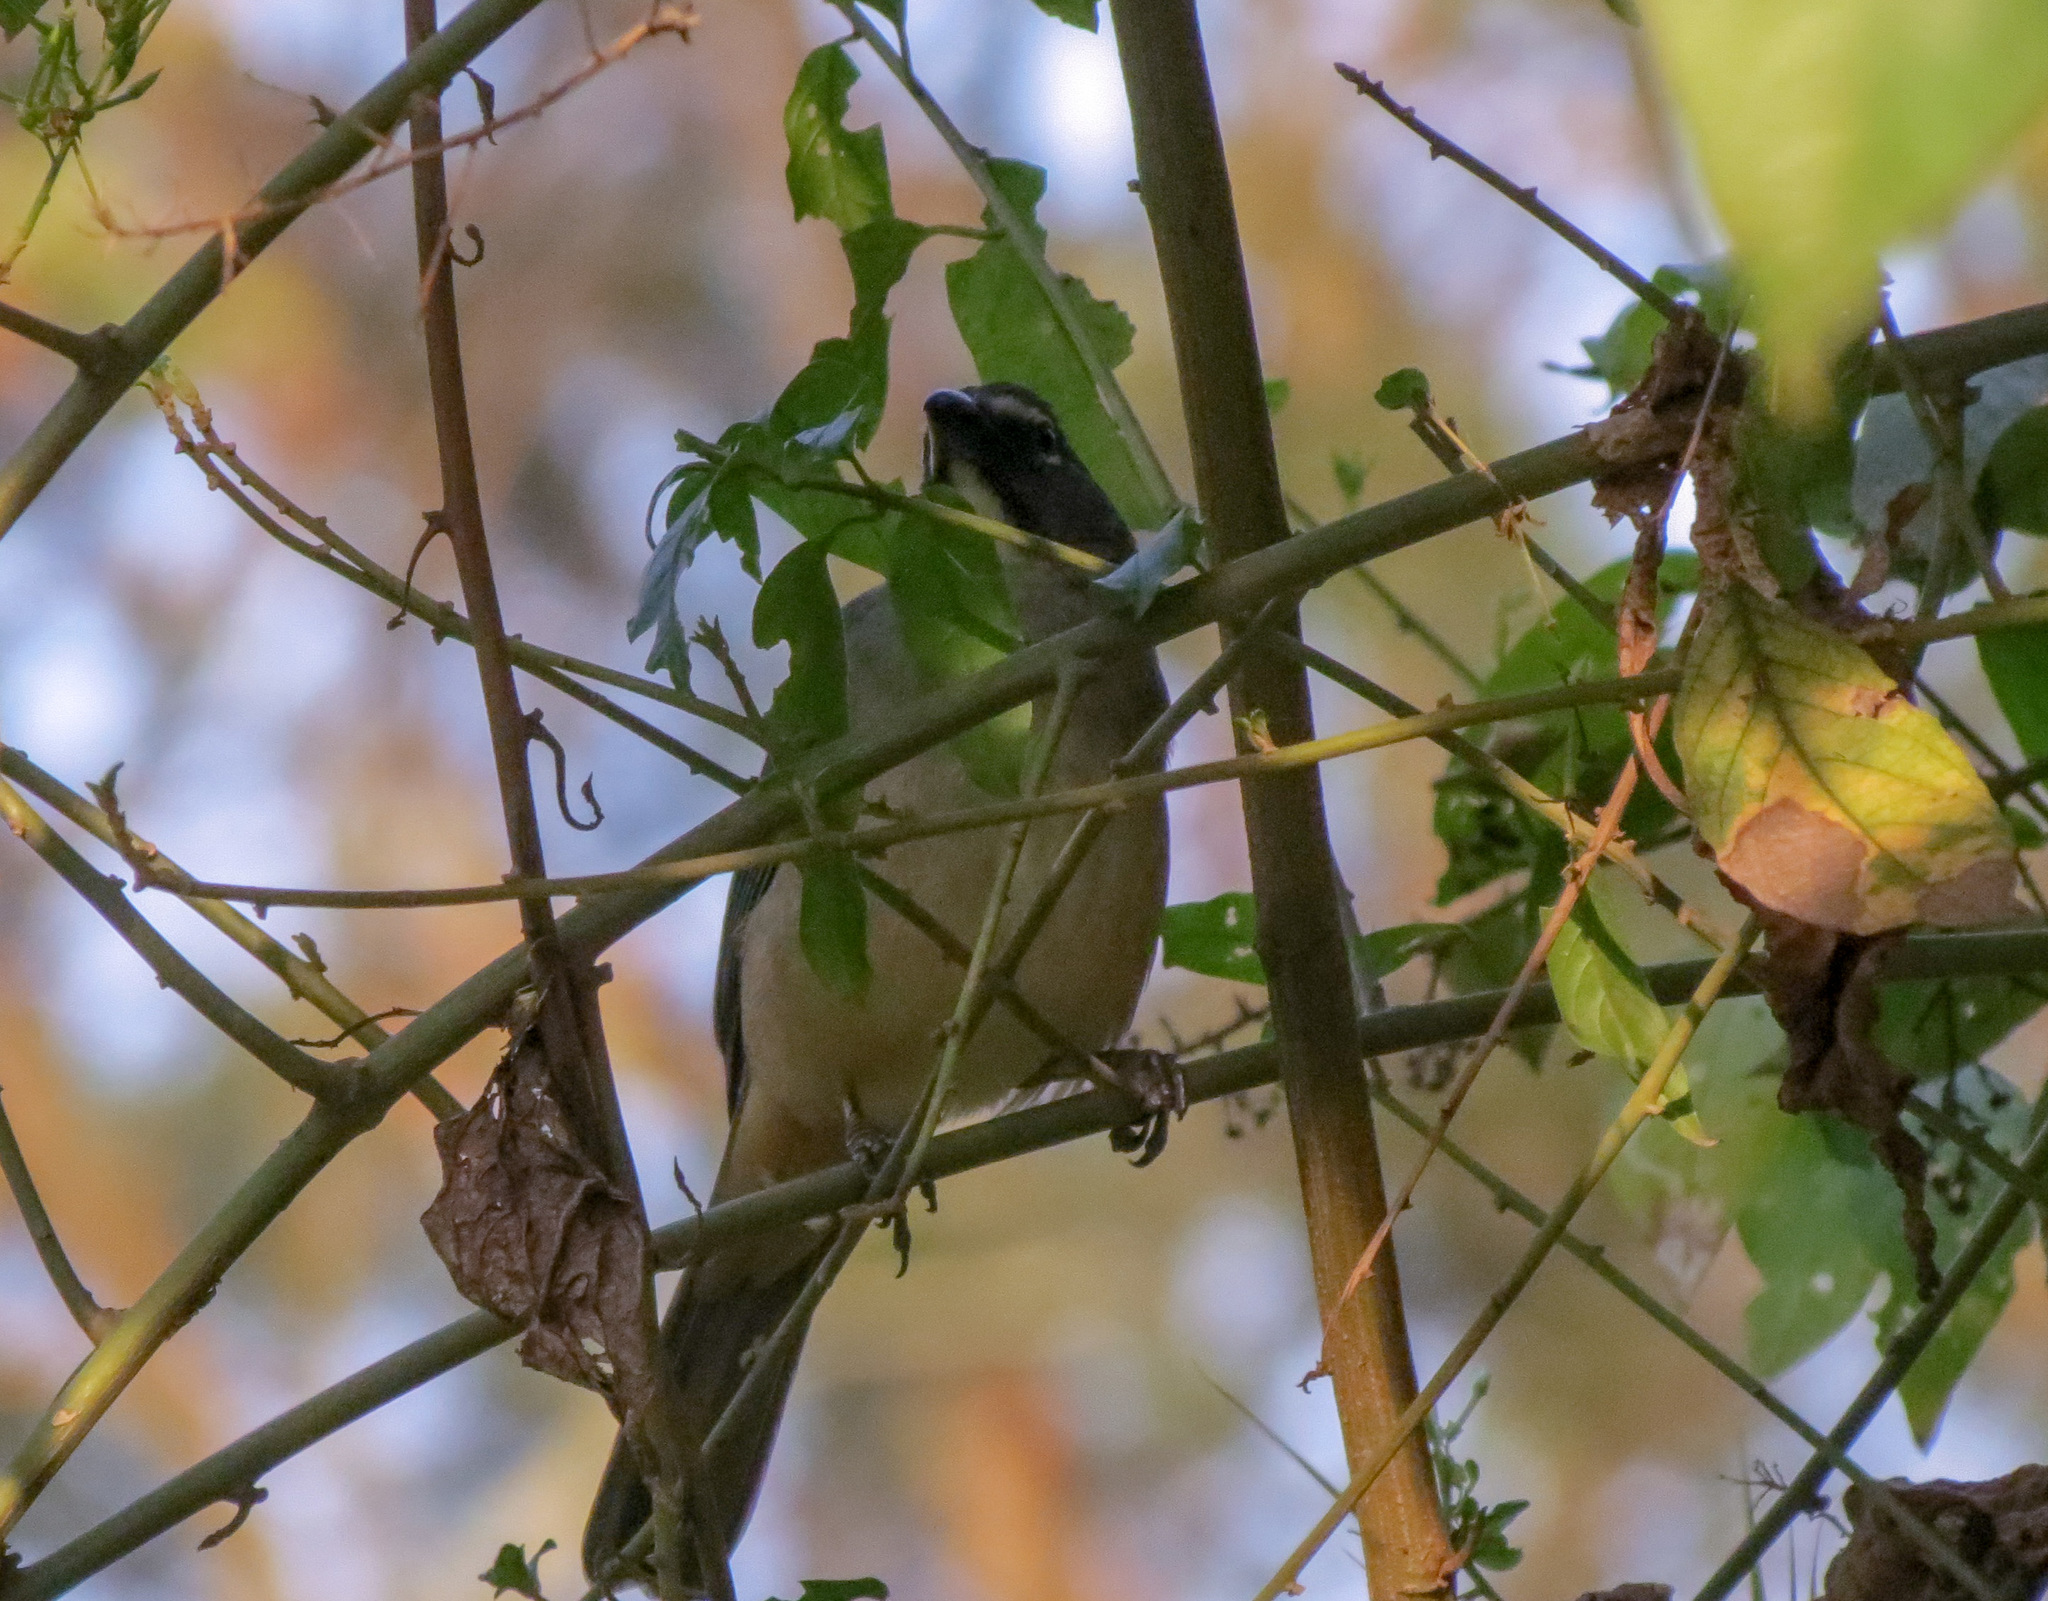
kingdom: Animalia
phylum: Chordata
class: Aves
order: Passeriformes
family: Thraupidae
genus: Saltator
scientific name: Saltator olivascens
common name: Caribbean grey saltator
